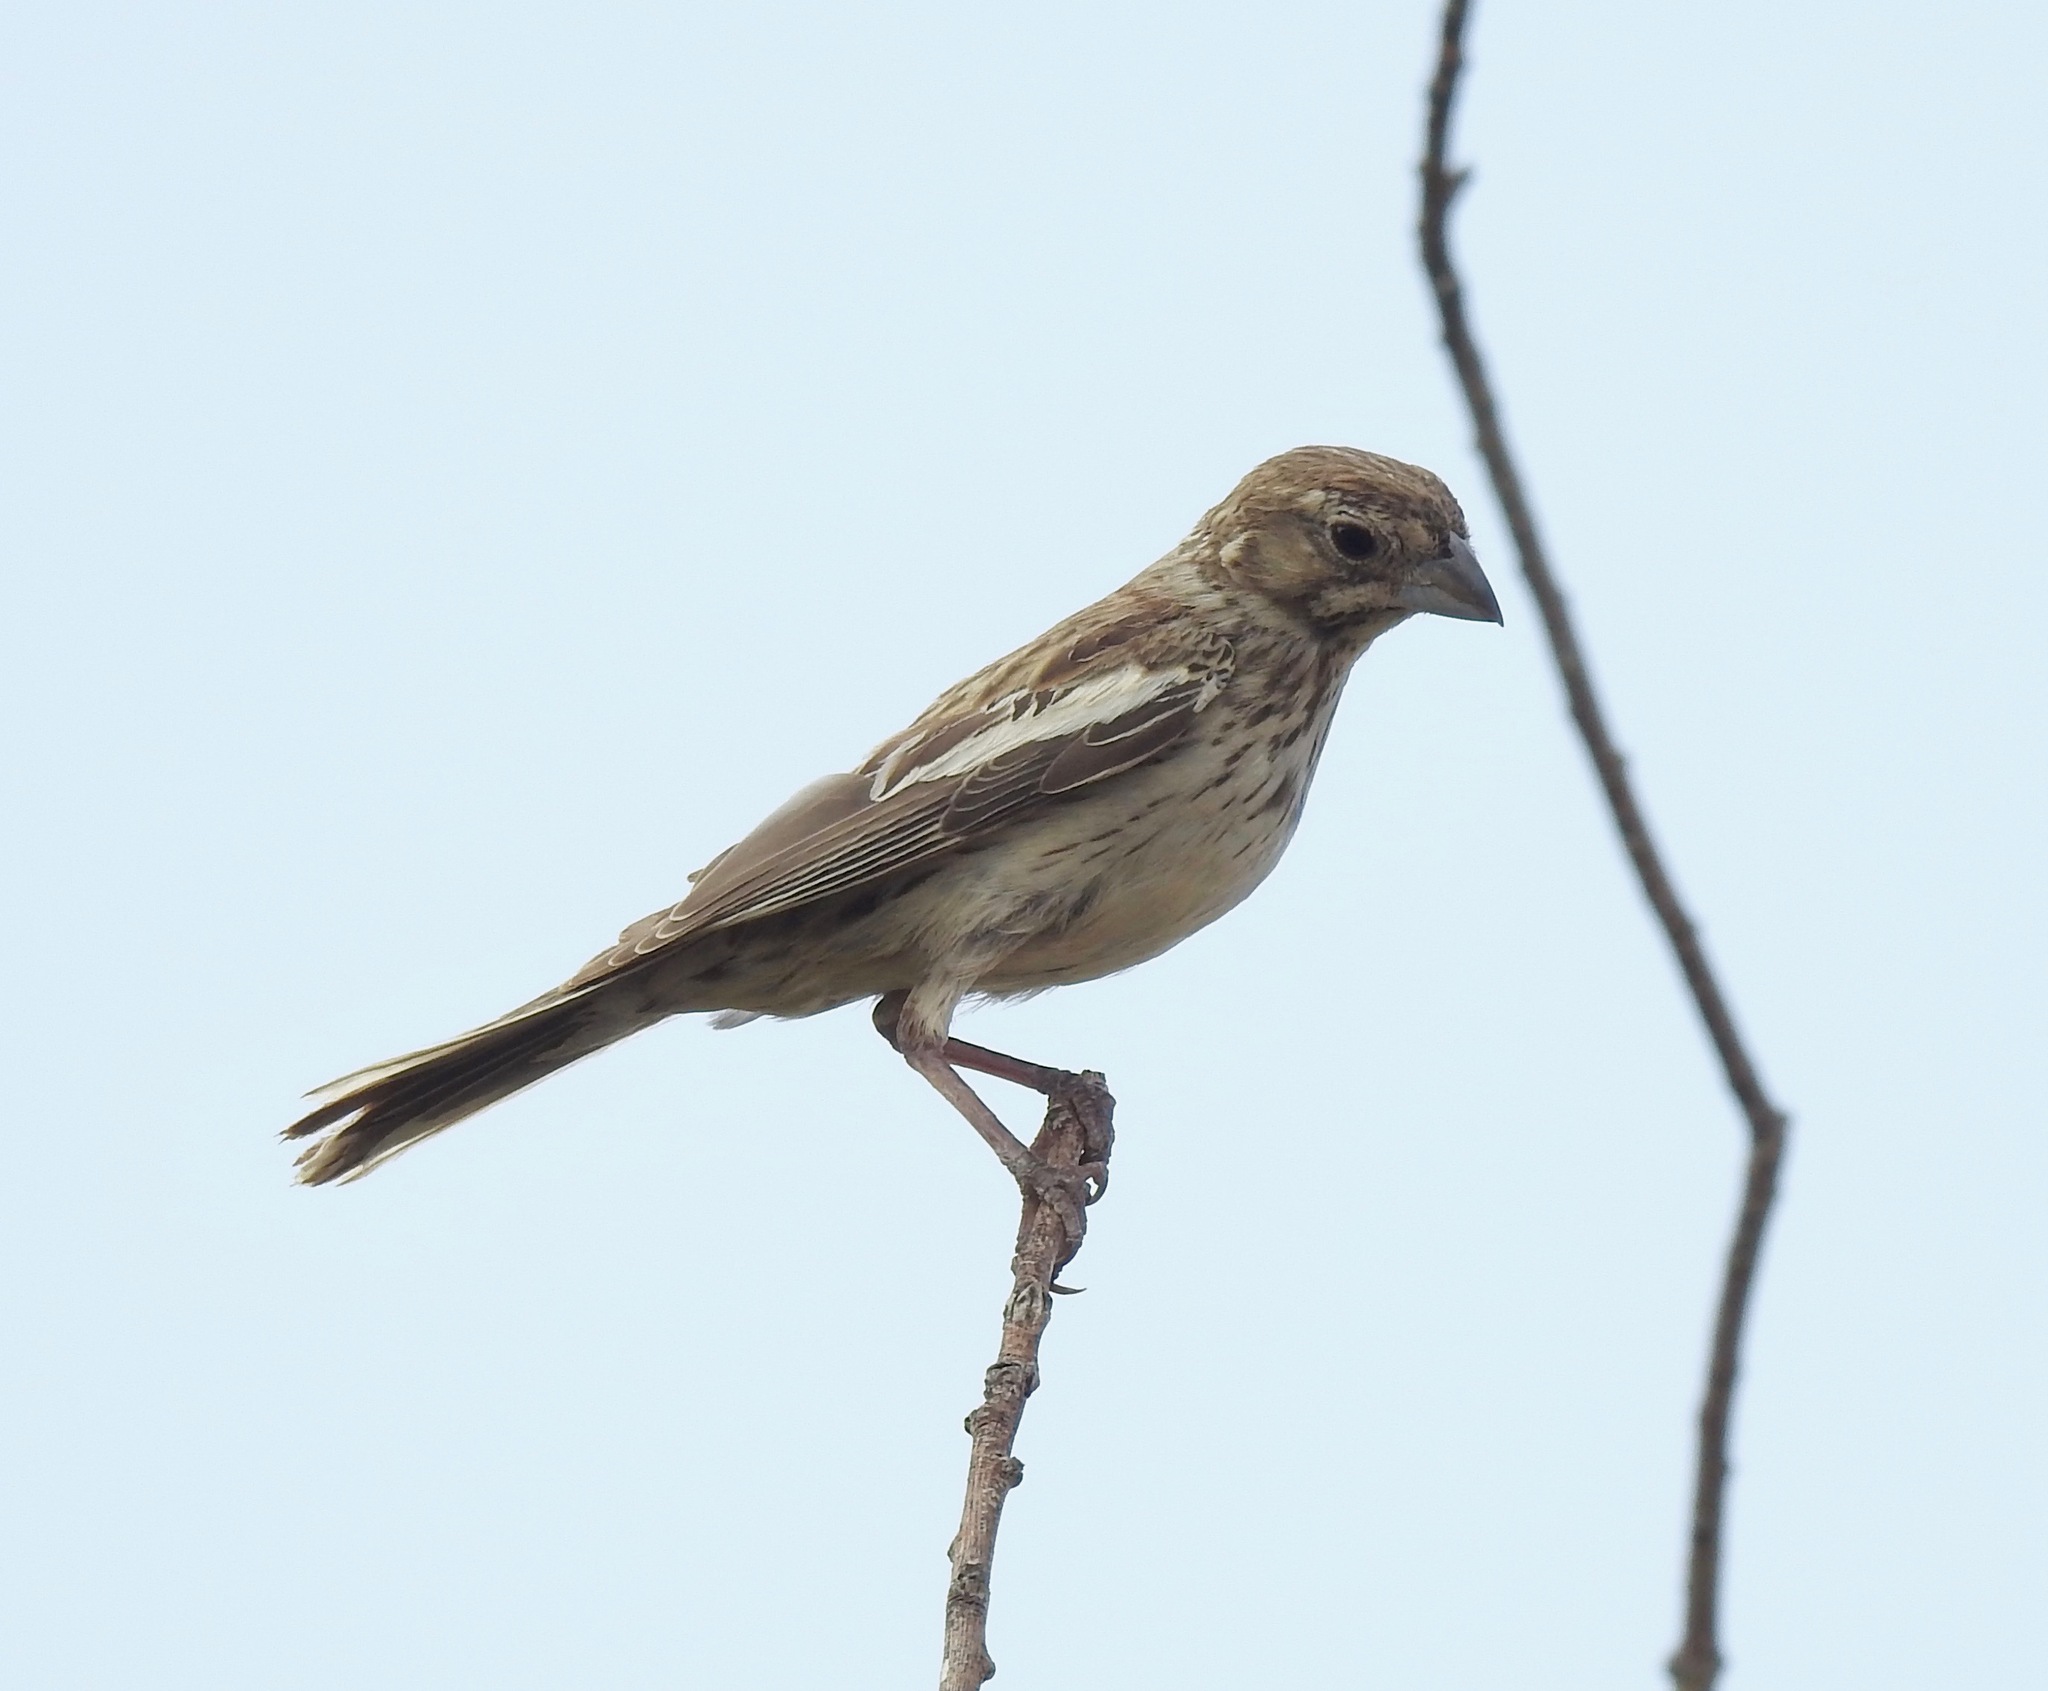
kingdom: Animalia
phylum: Chordata
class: Aves
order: Passeriformes
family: Passerellidae
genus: Calamospiza
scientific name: Calamospiza melanocorys
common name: Lark bunting
